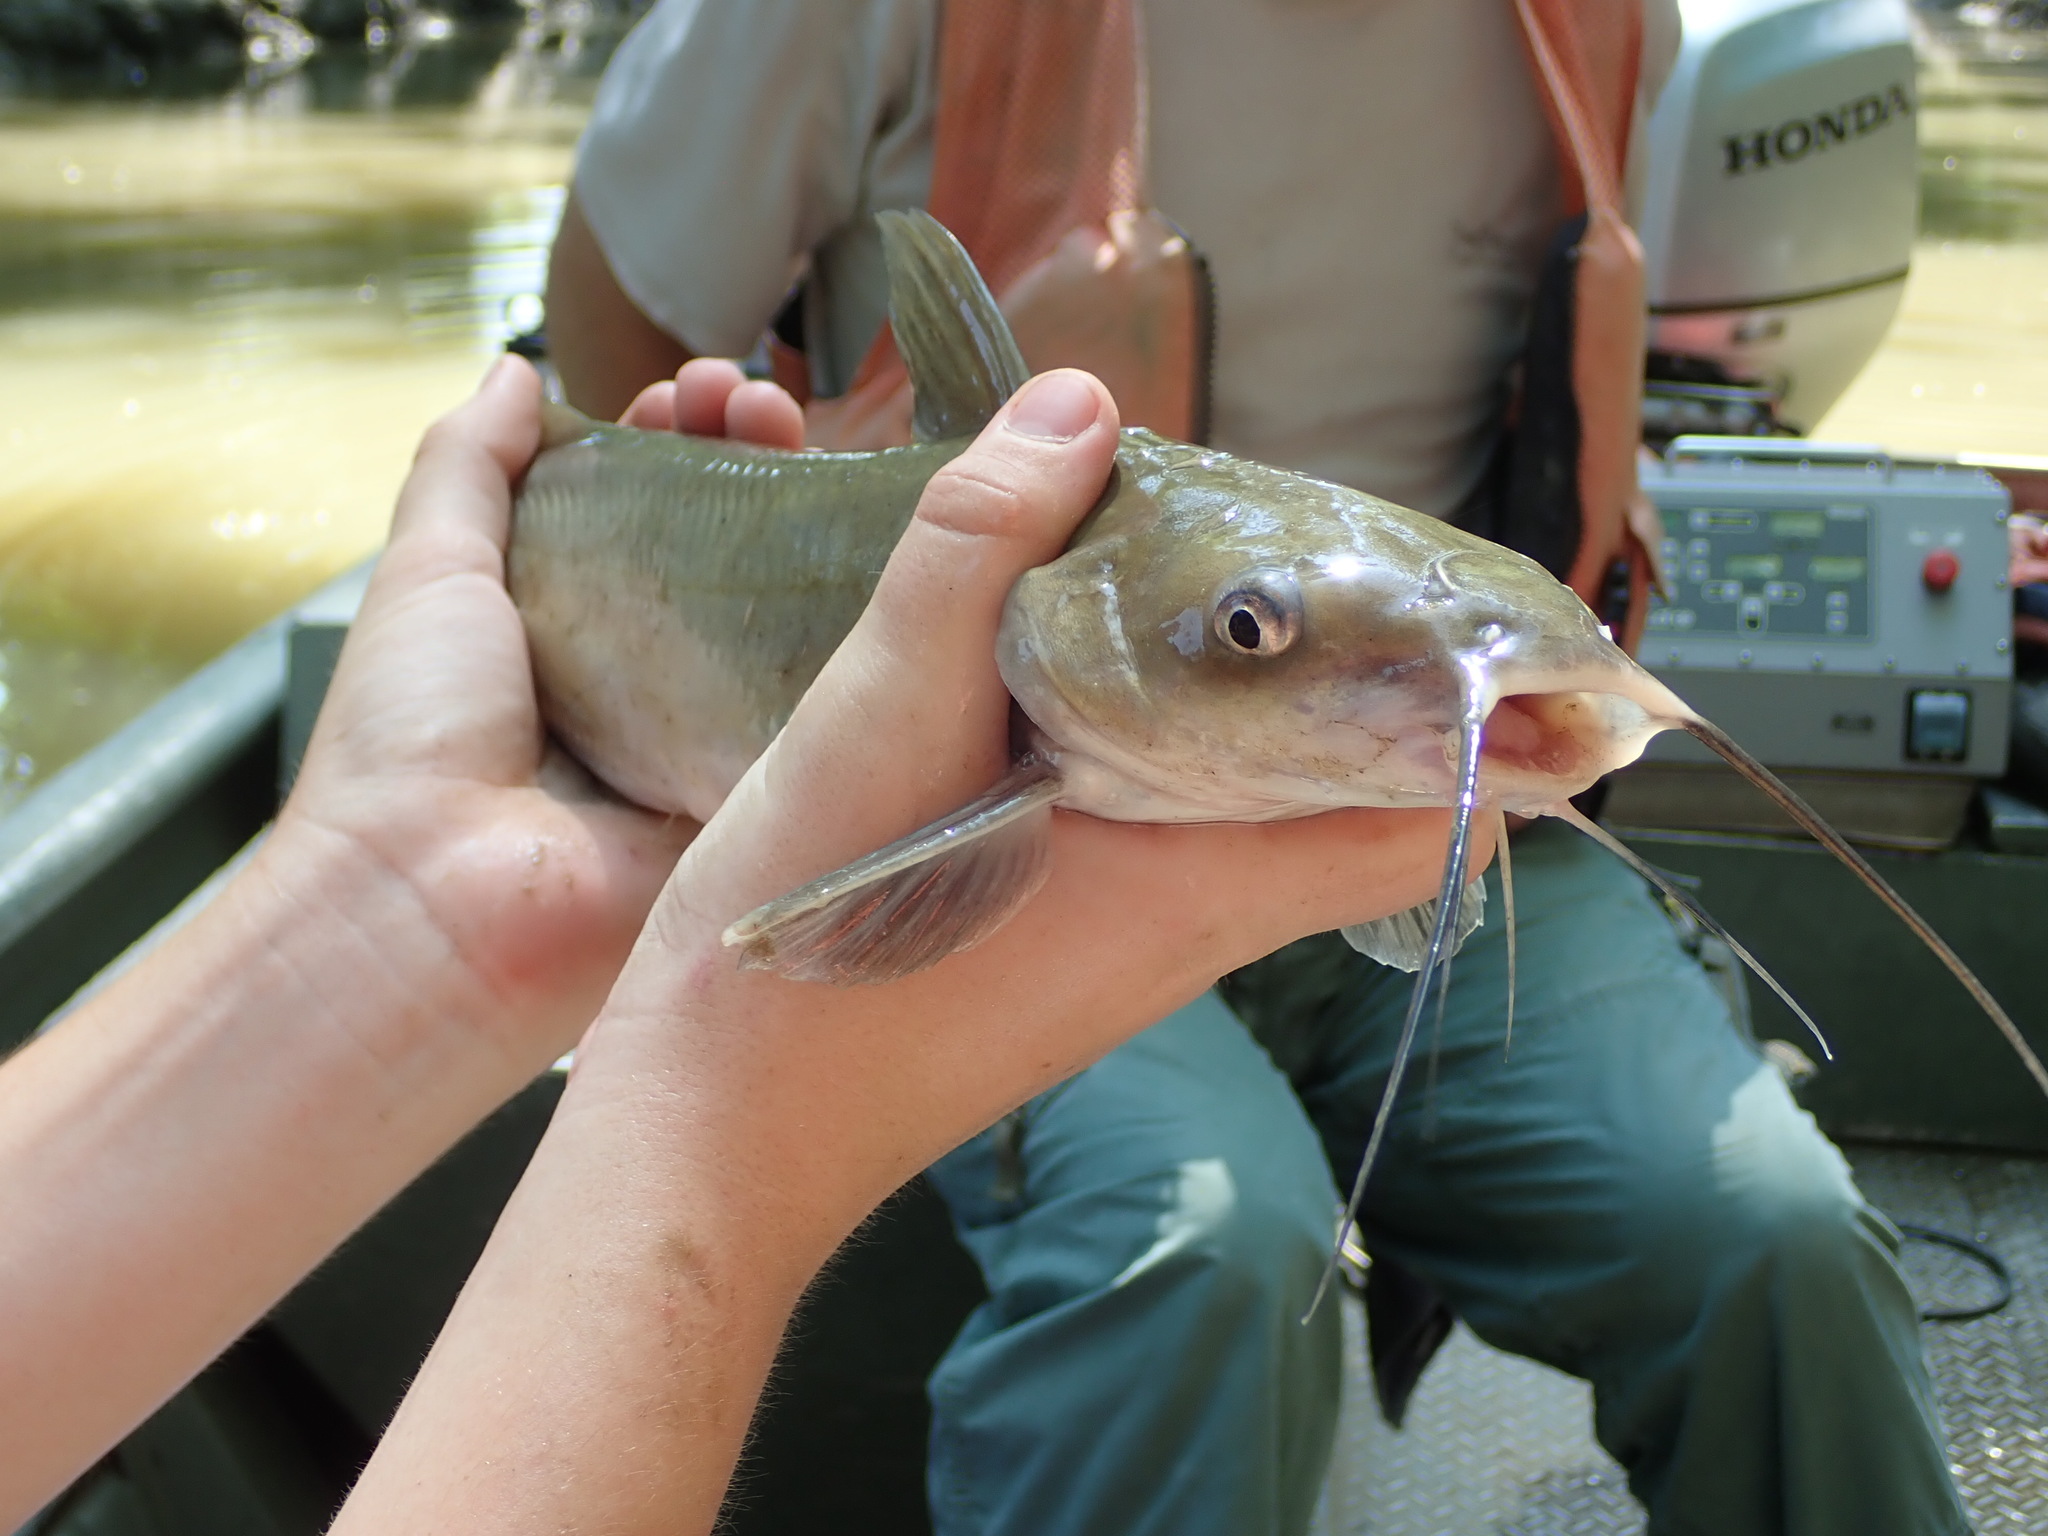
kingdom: Animalia
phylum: Chordata
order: Siluriformes
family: Ictaluridae
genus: Ictalurus
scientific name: Ictalurus punctatus
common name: Channel catfish
